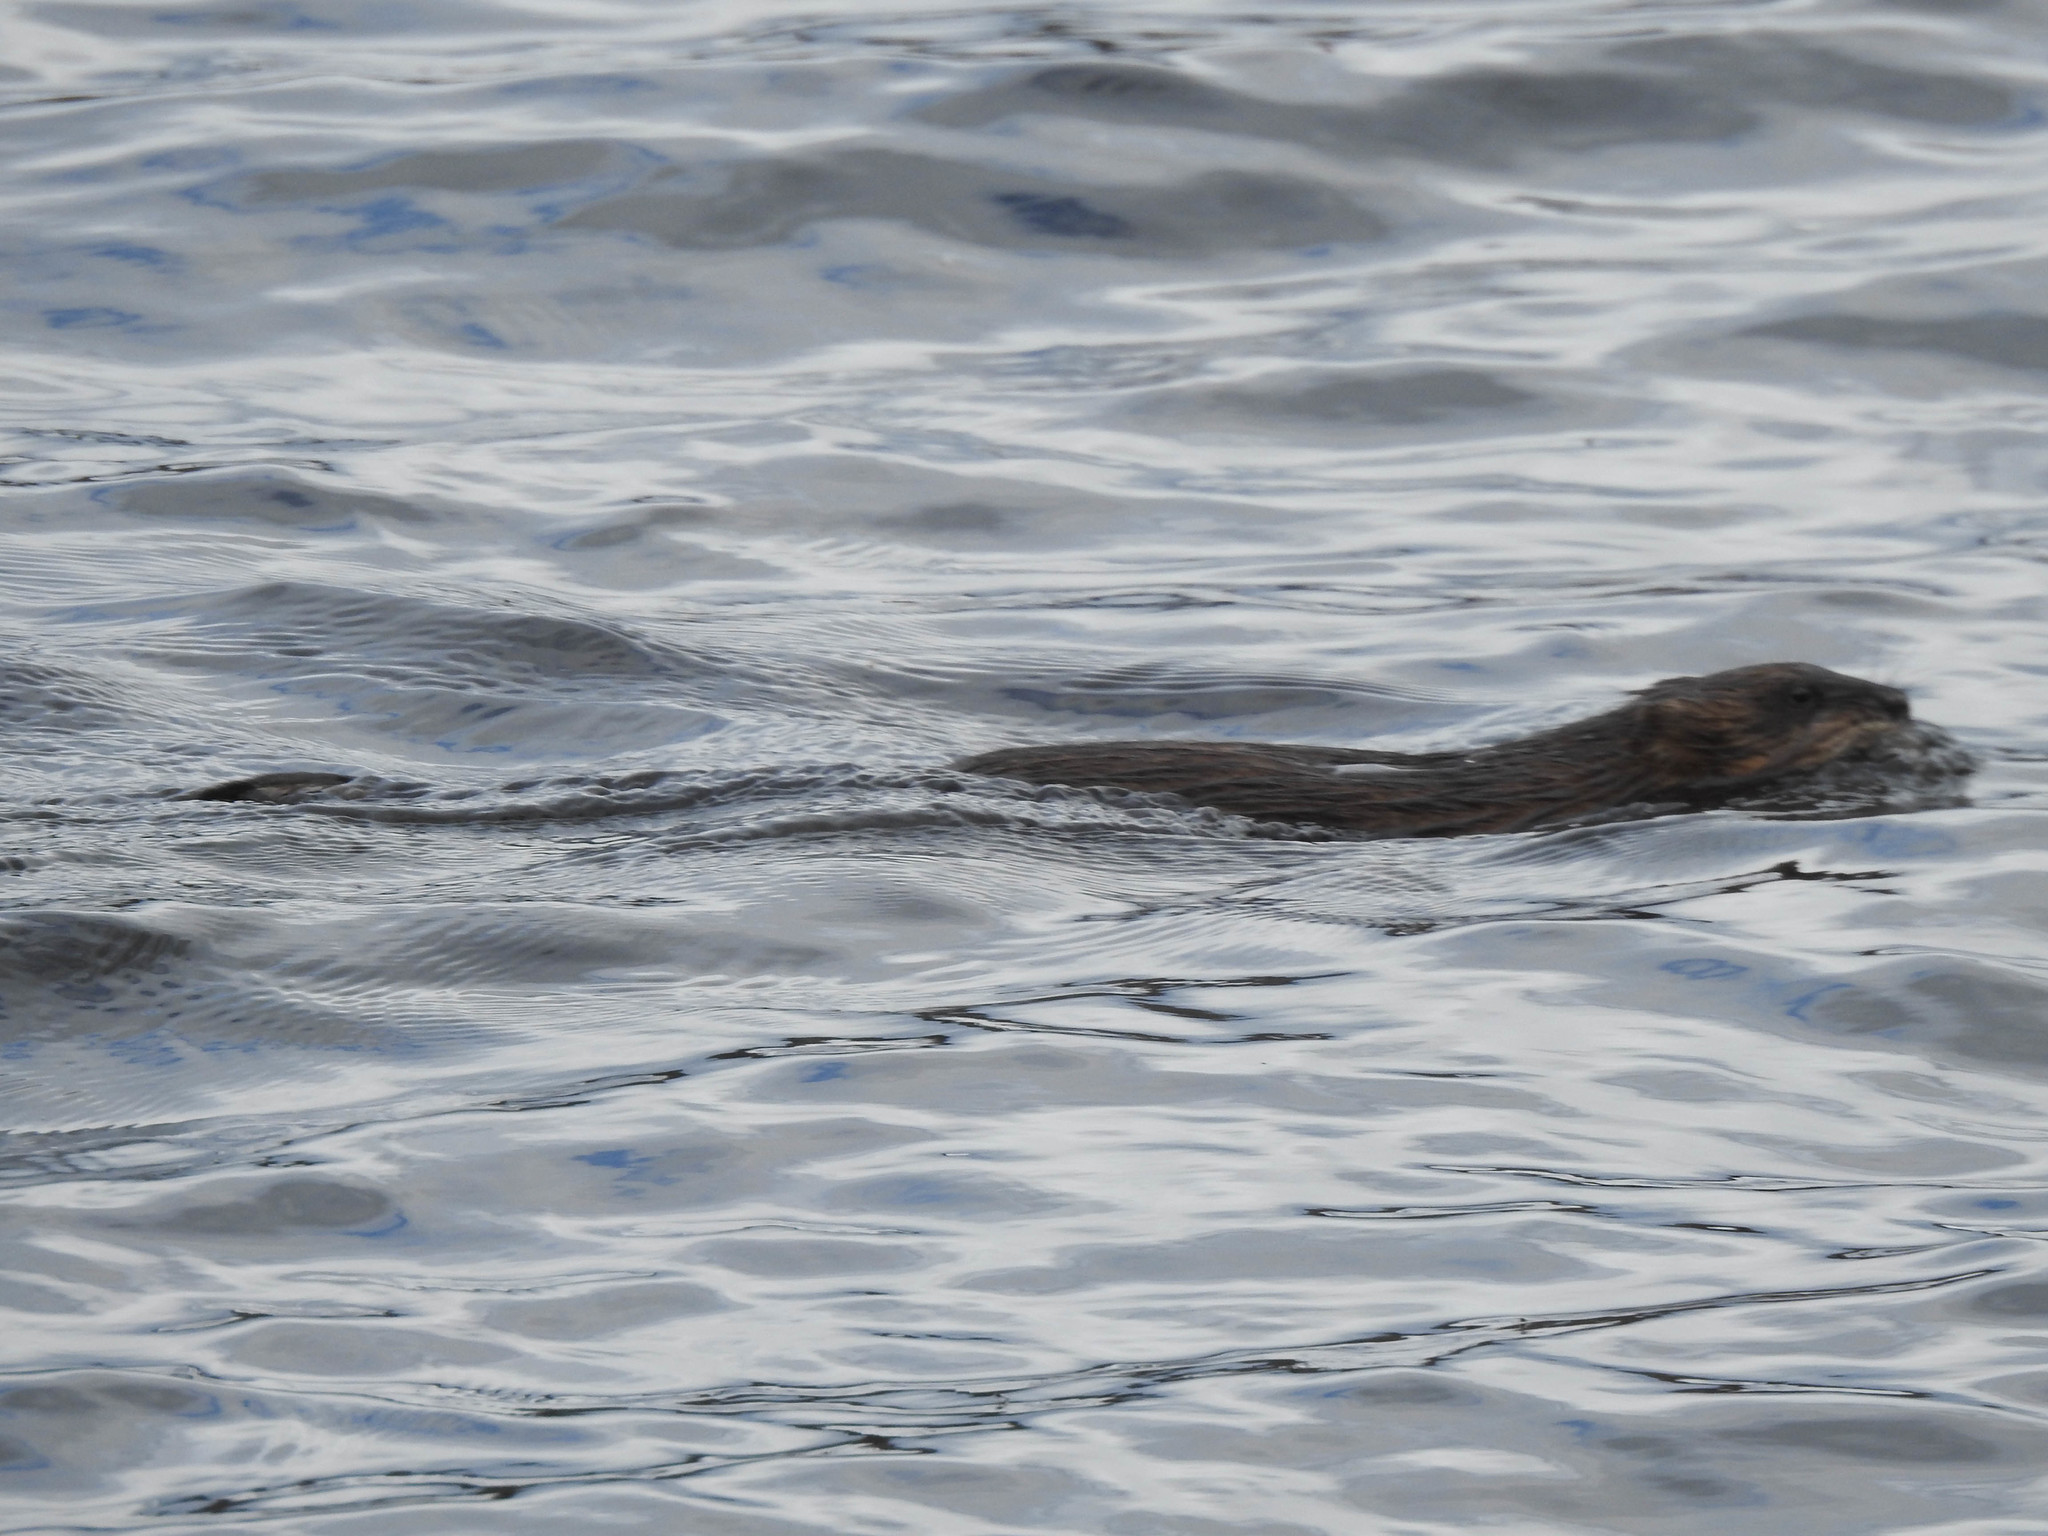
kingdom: Animalia
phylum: Chordata
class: Mammalia
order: Rodentia
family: Cricetidae
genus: Ondatra
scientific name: Ondatra zibethicus
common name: Muskrat
